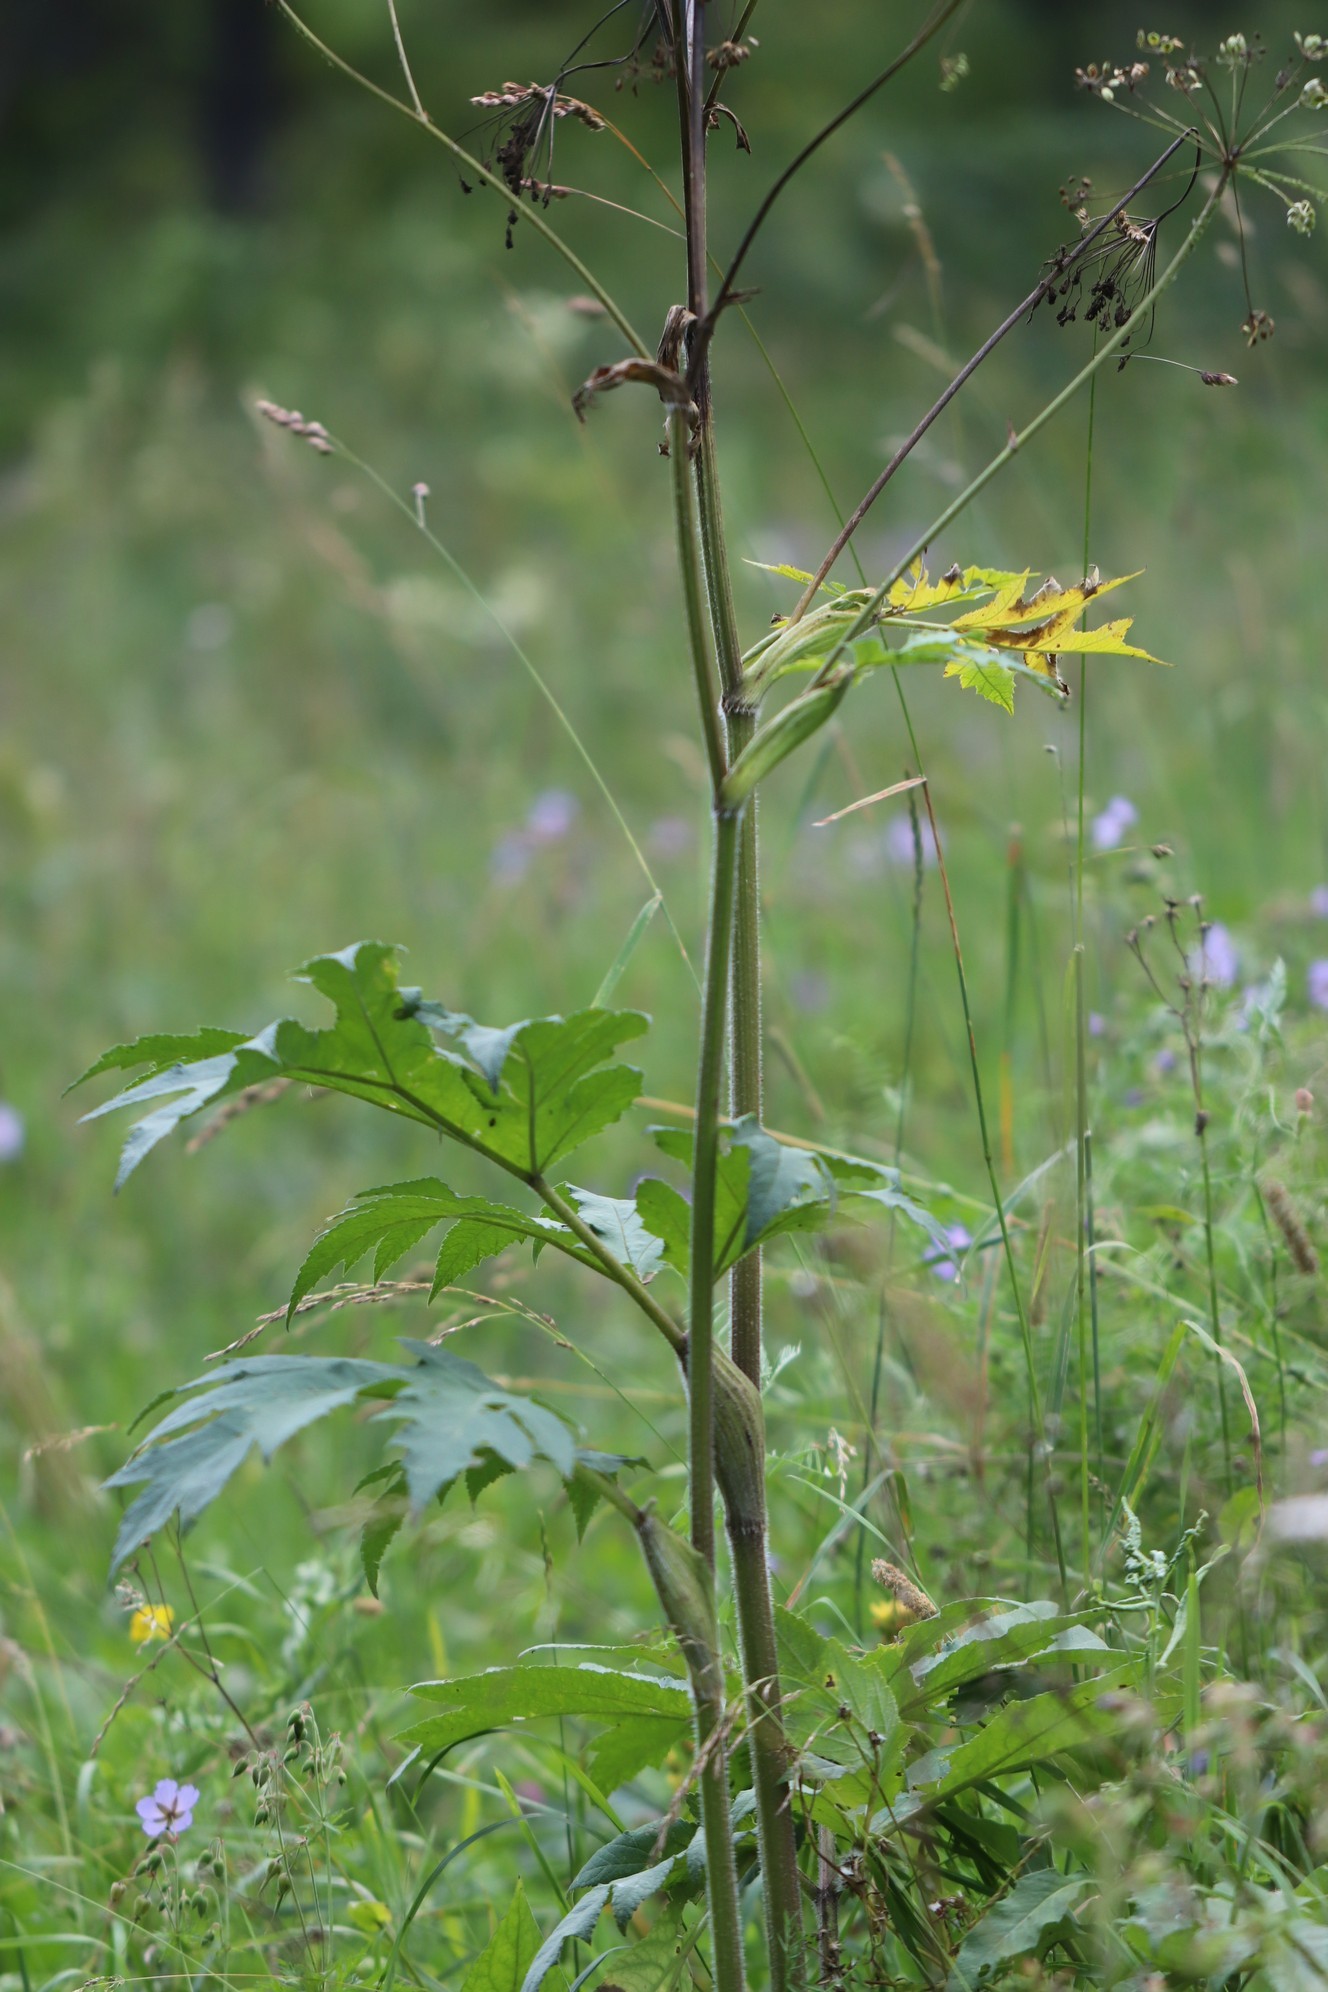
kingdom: Plantae
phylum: Tracheophyta
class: Magnoliopsida
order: Apiales
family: Apiaceae
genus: Heracleum
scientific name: Heracleum dissectum
